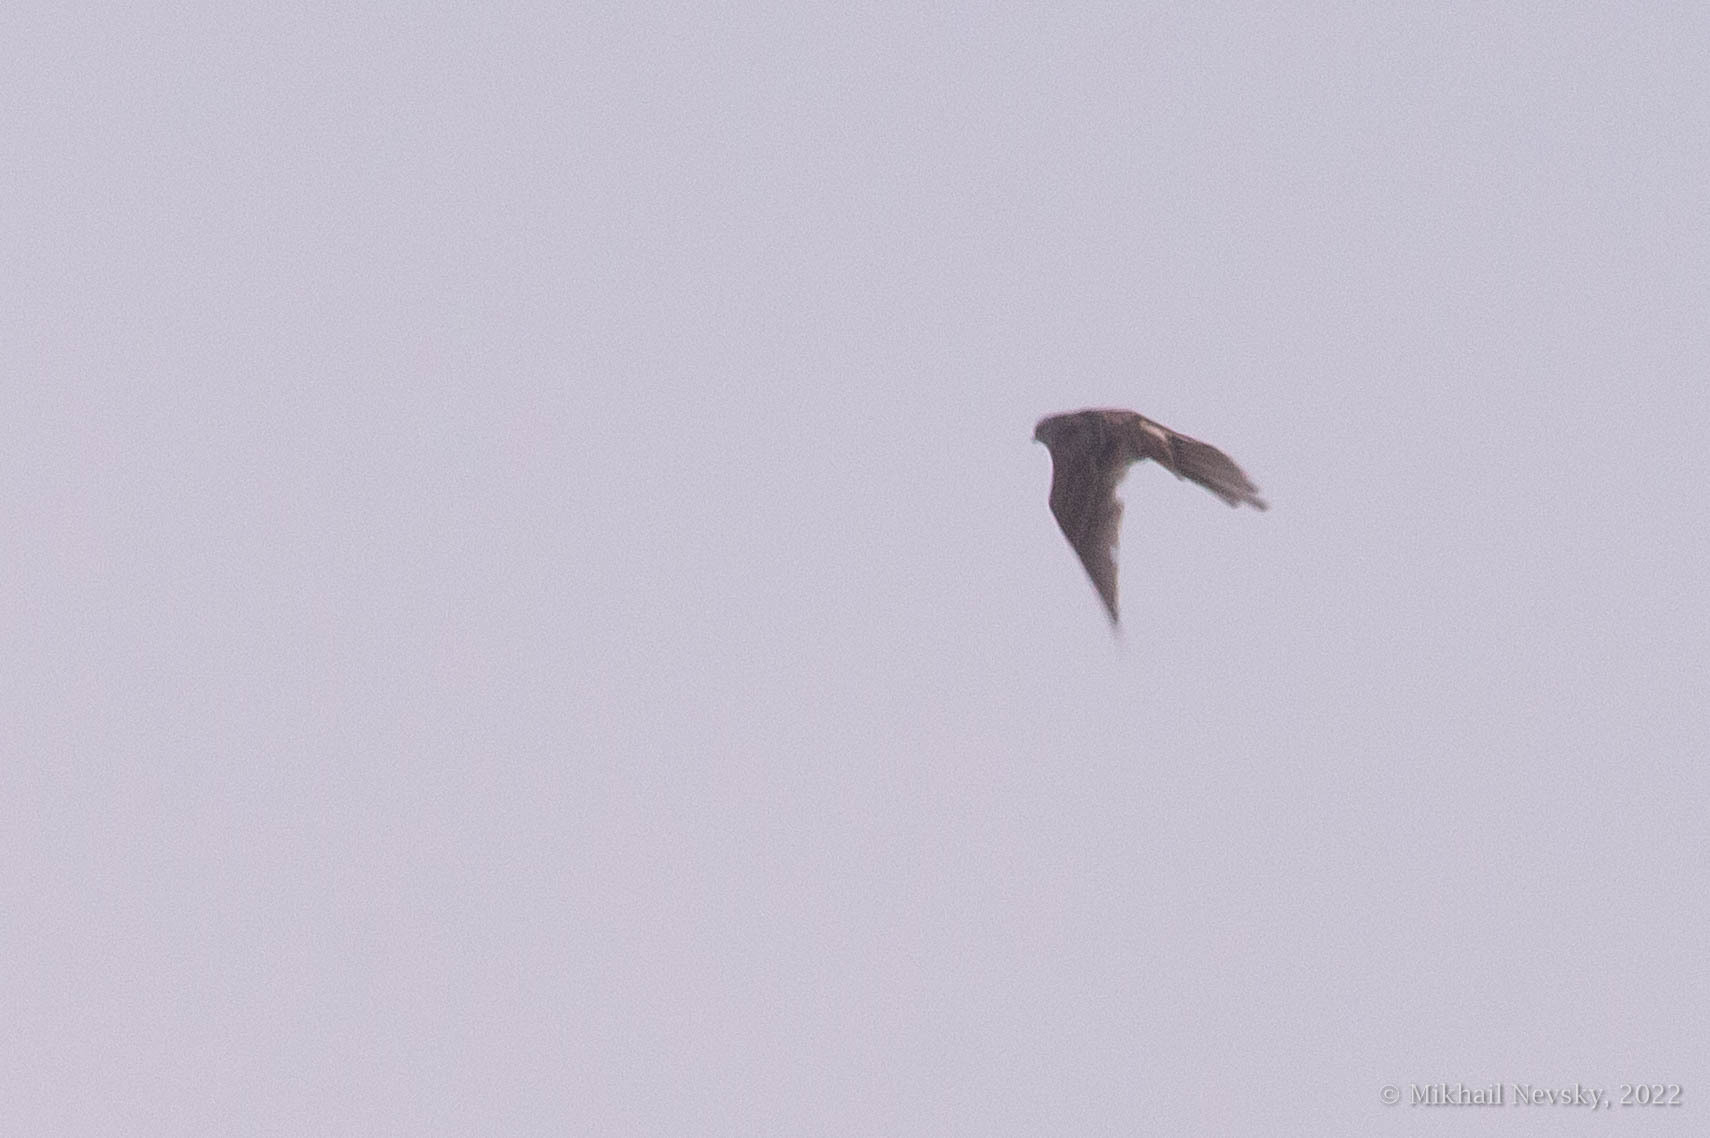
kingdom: Animalia
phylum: Chordata
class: Aves
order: Passeriformes
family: Alaudidae
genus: Alauda
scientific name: Alauda arvensis
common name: Eurasian skylark
